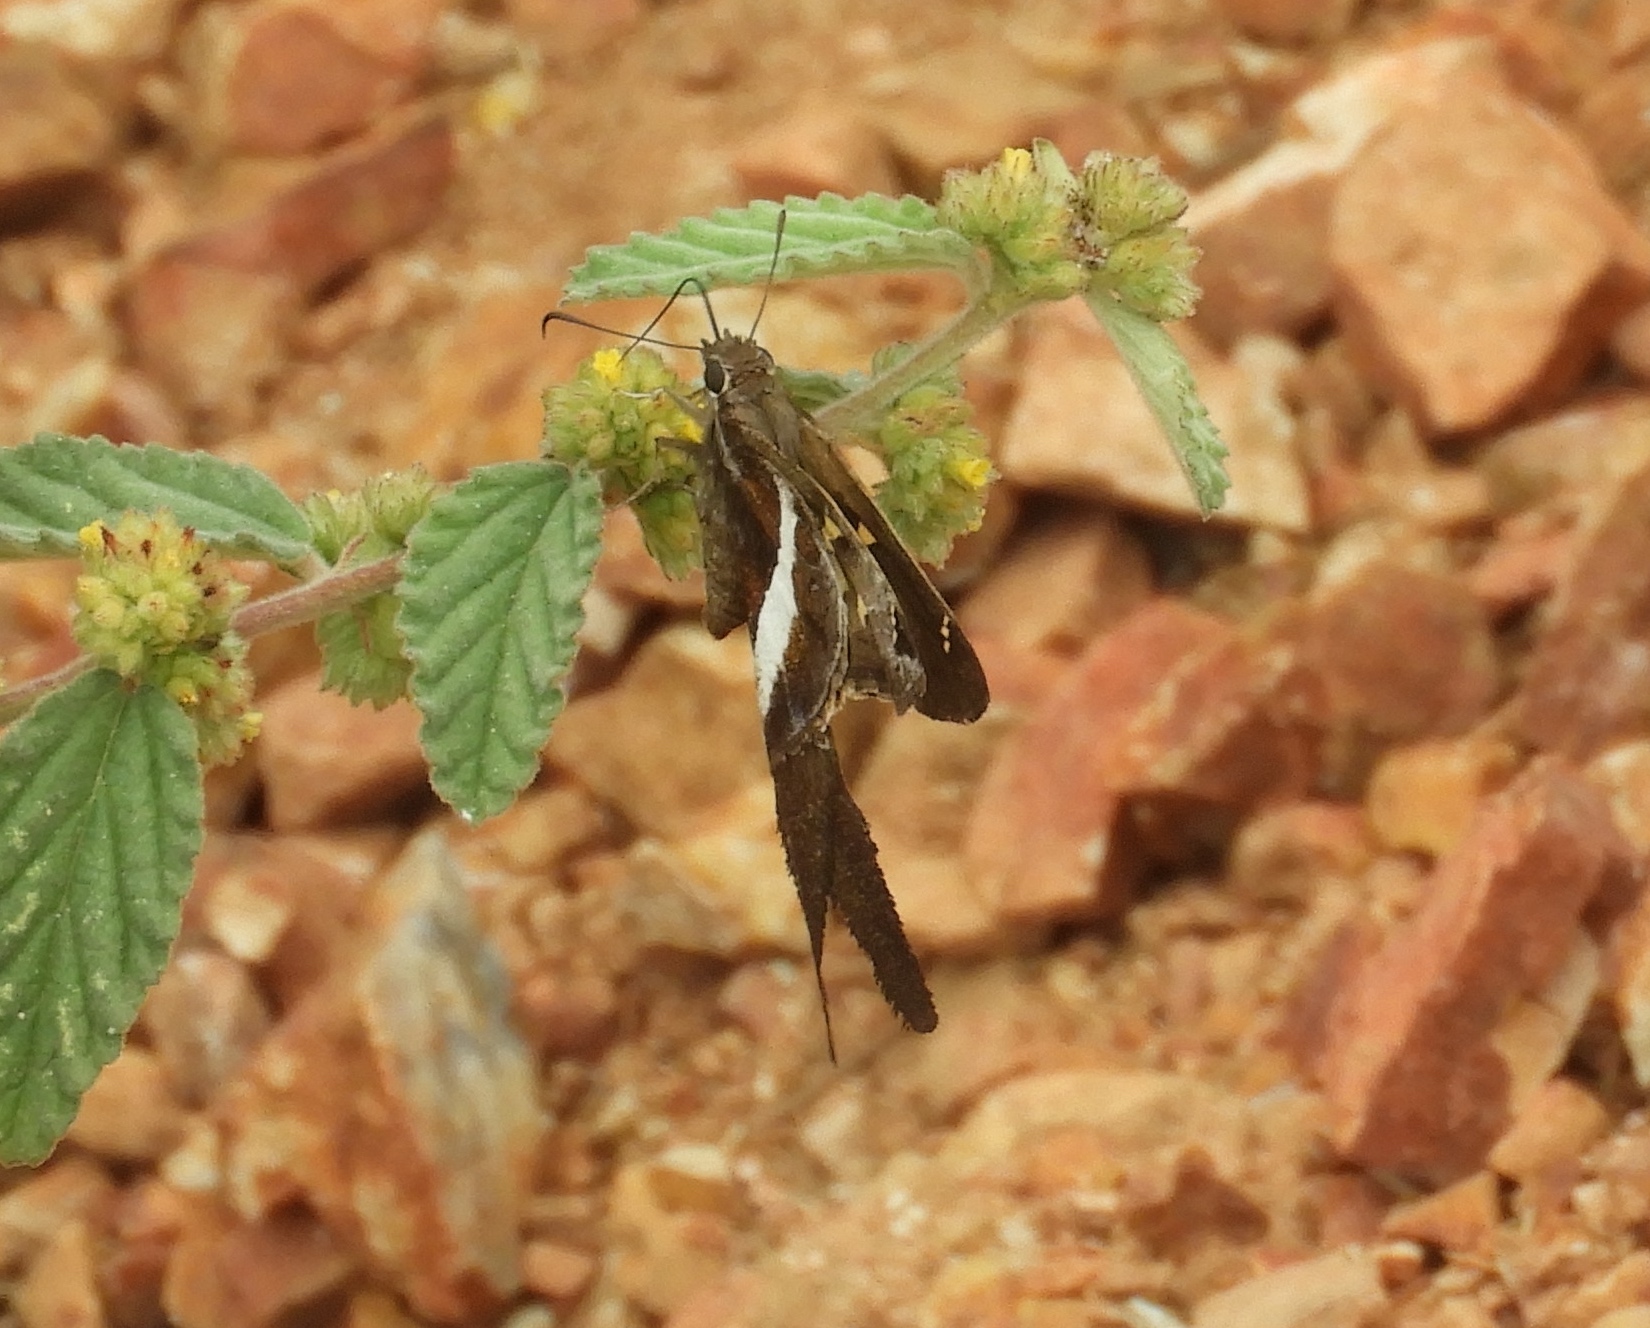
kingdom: Animalia
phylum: Arthropoda
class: Insecta
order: Lepidoptera
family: Hesperiidae
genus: Chioides
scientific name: Chioides catillus
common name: Silverbanded skipper
